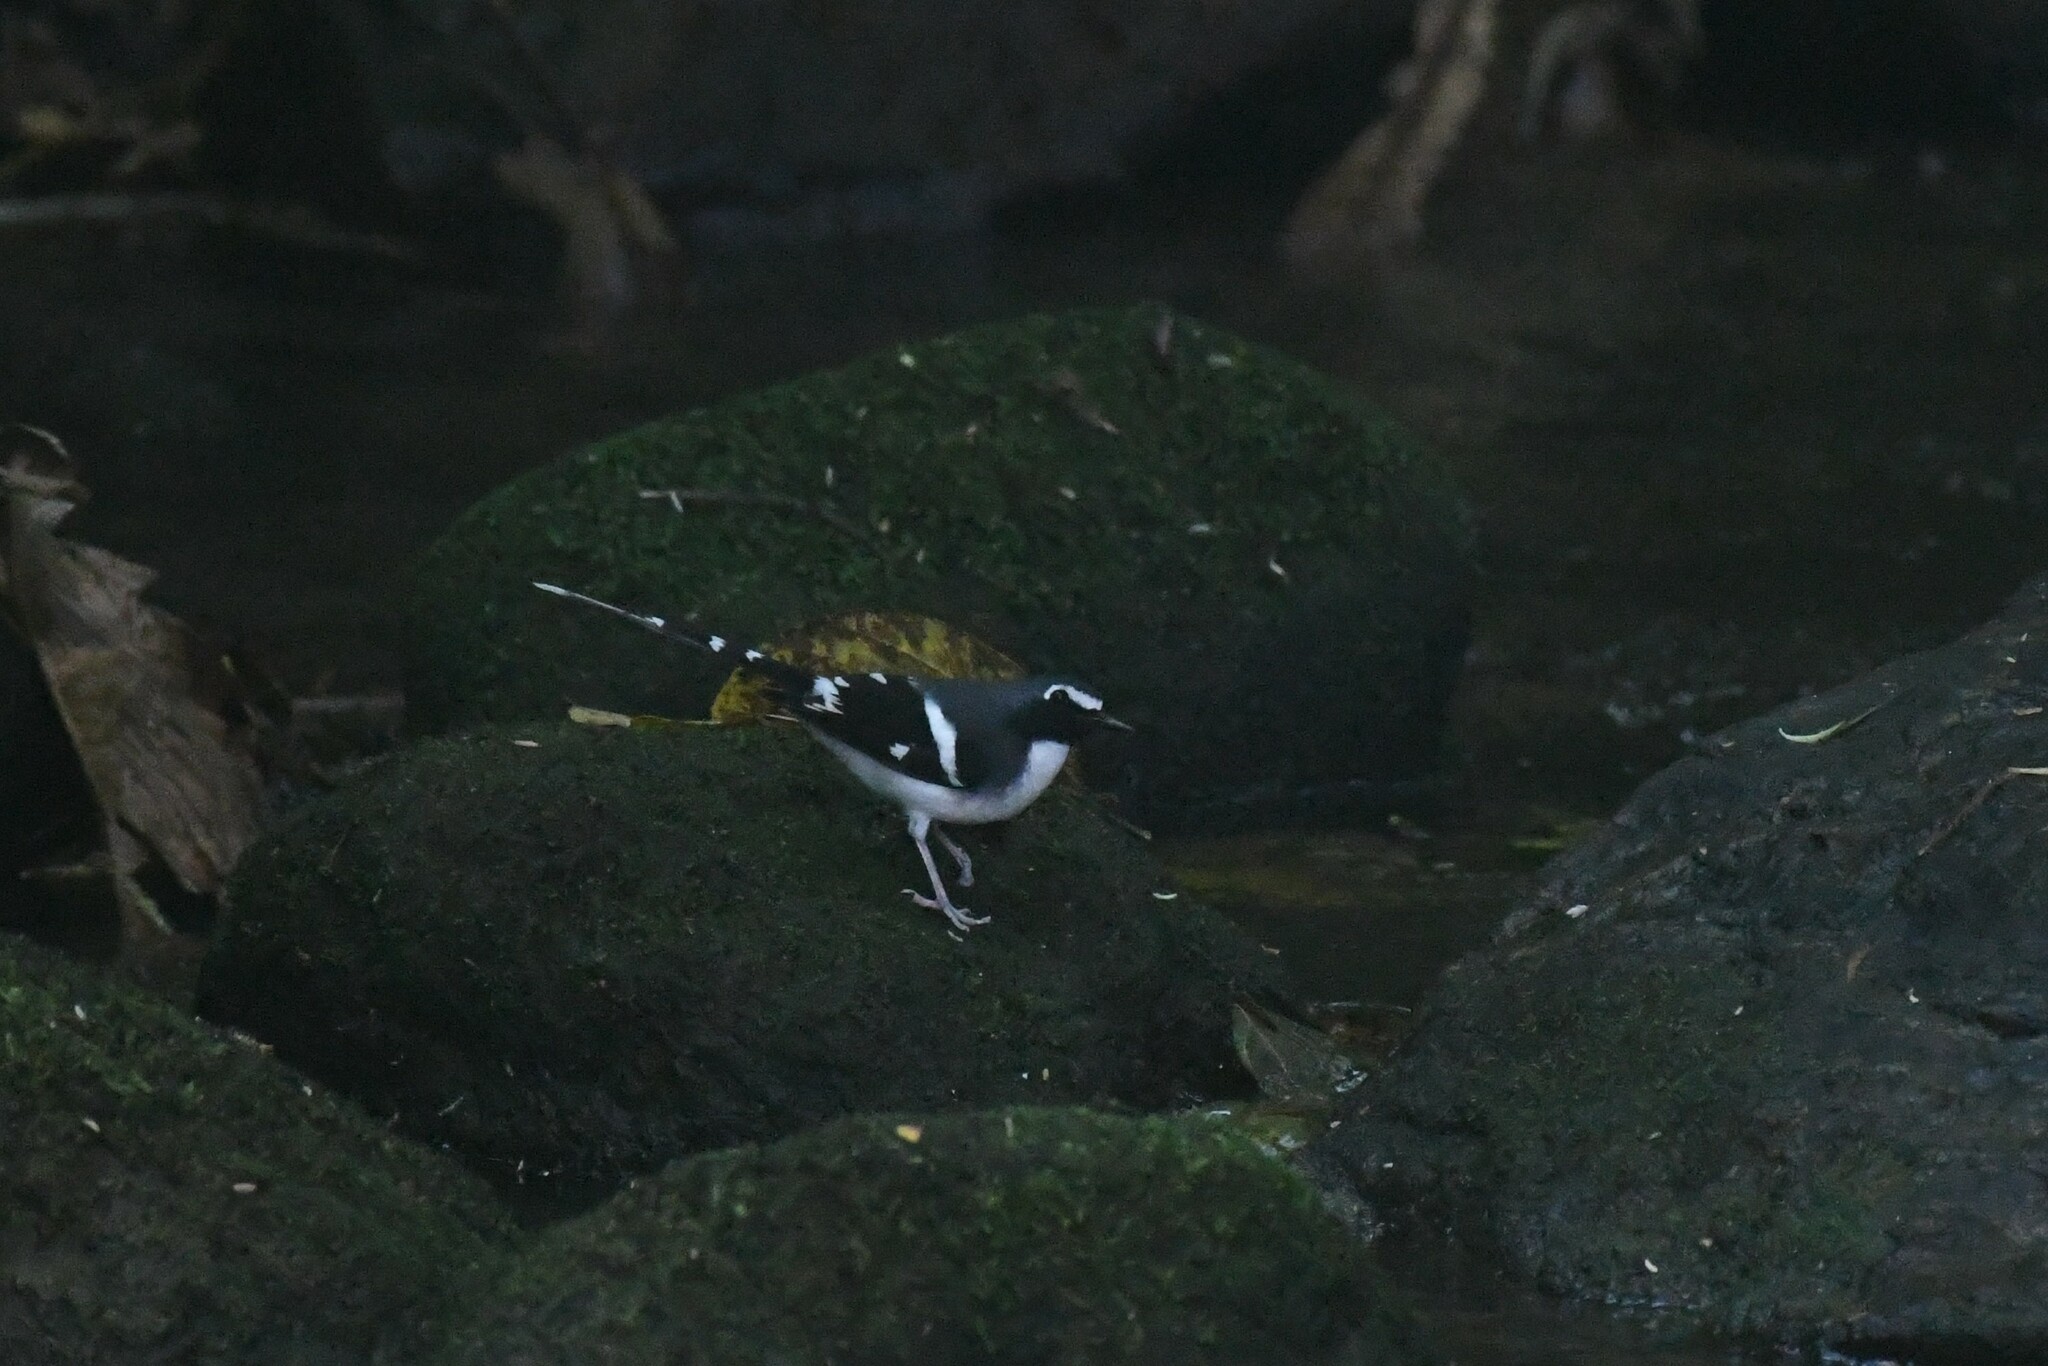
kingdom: Animalia
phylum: Chordata
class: Aves
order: Passeriformes
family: Muscicapidae
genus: Enicurus
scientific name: Enicurus schistaceus
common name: Slaty-backed forktail
